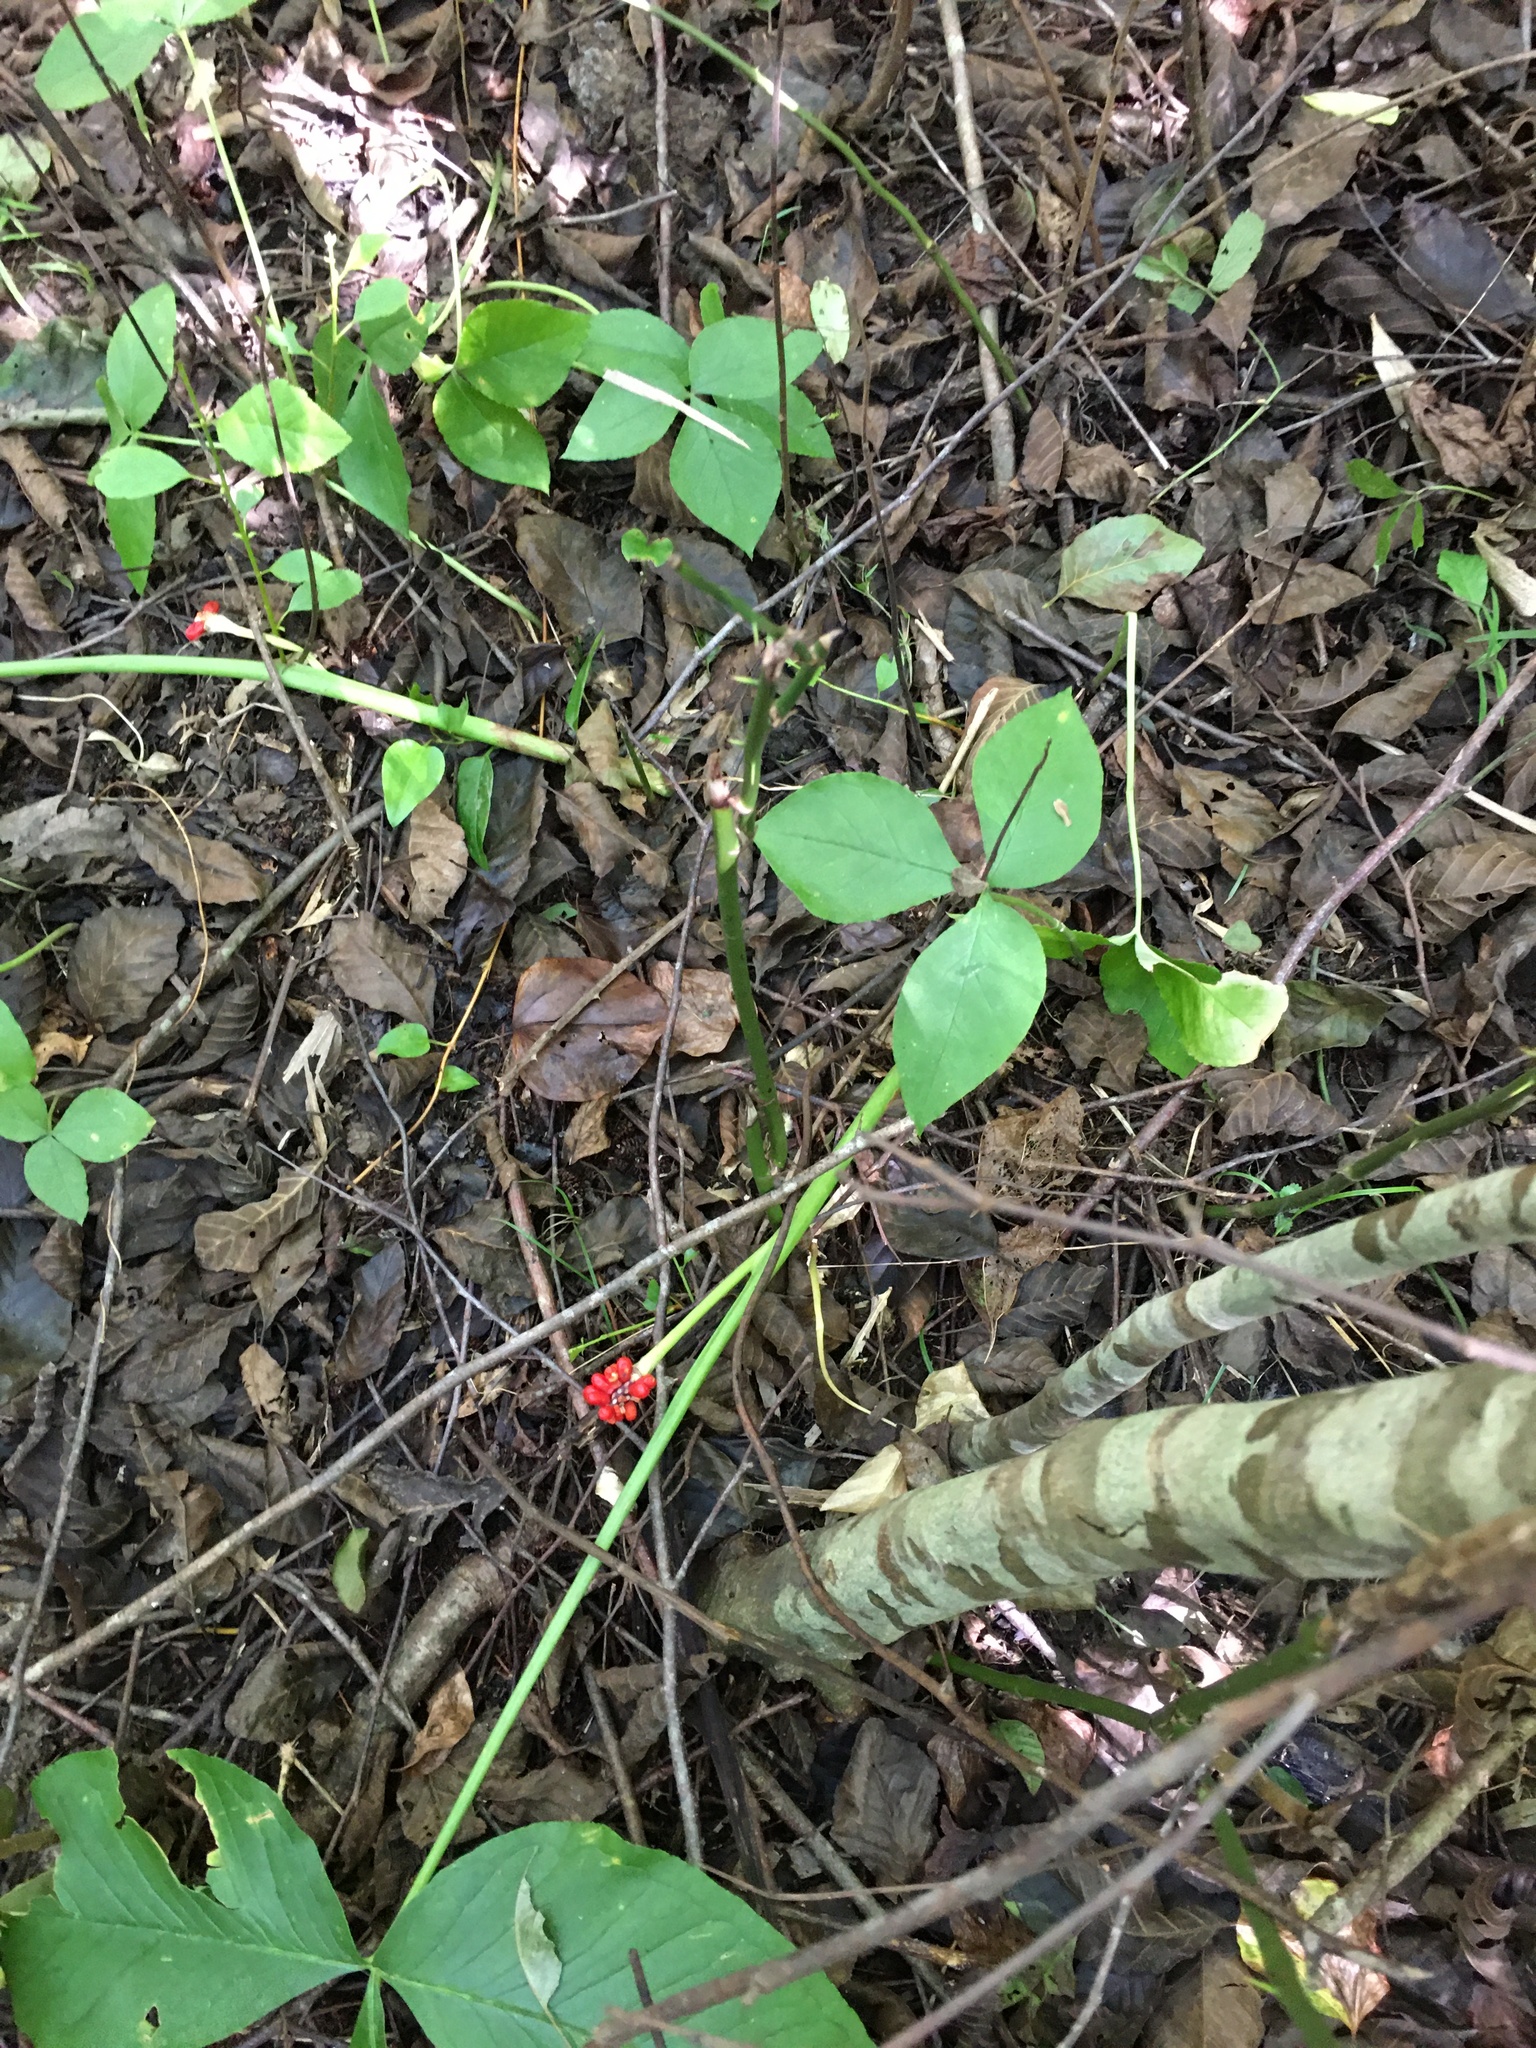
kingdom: Plantae
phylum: Tracheophyta
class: Liliopsida
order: Alismatales
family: Araceae
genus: Arisaema
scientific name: Arisaema triphyllum
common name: Jack-in-the-pulpit
